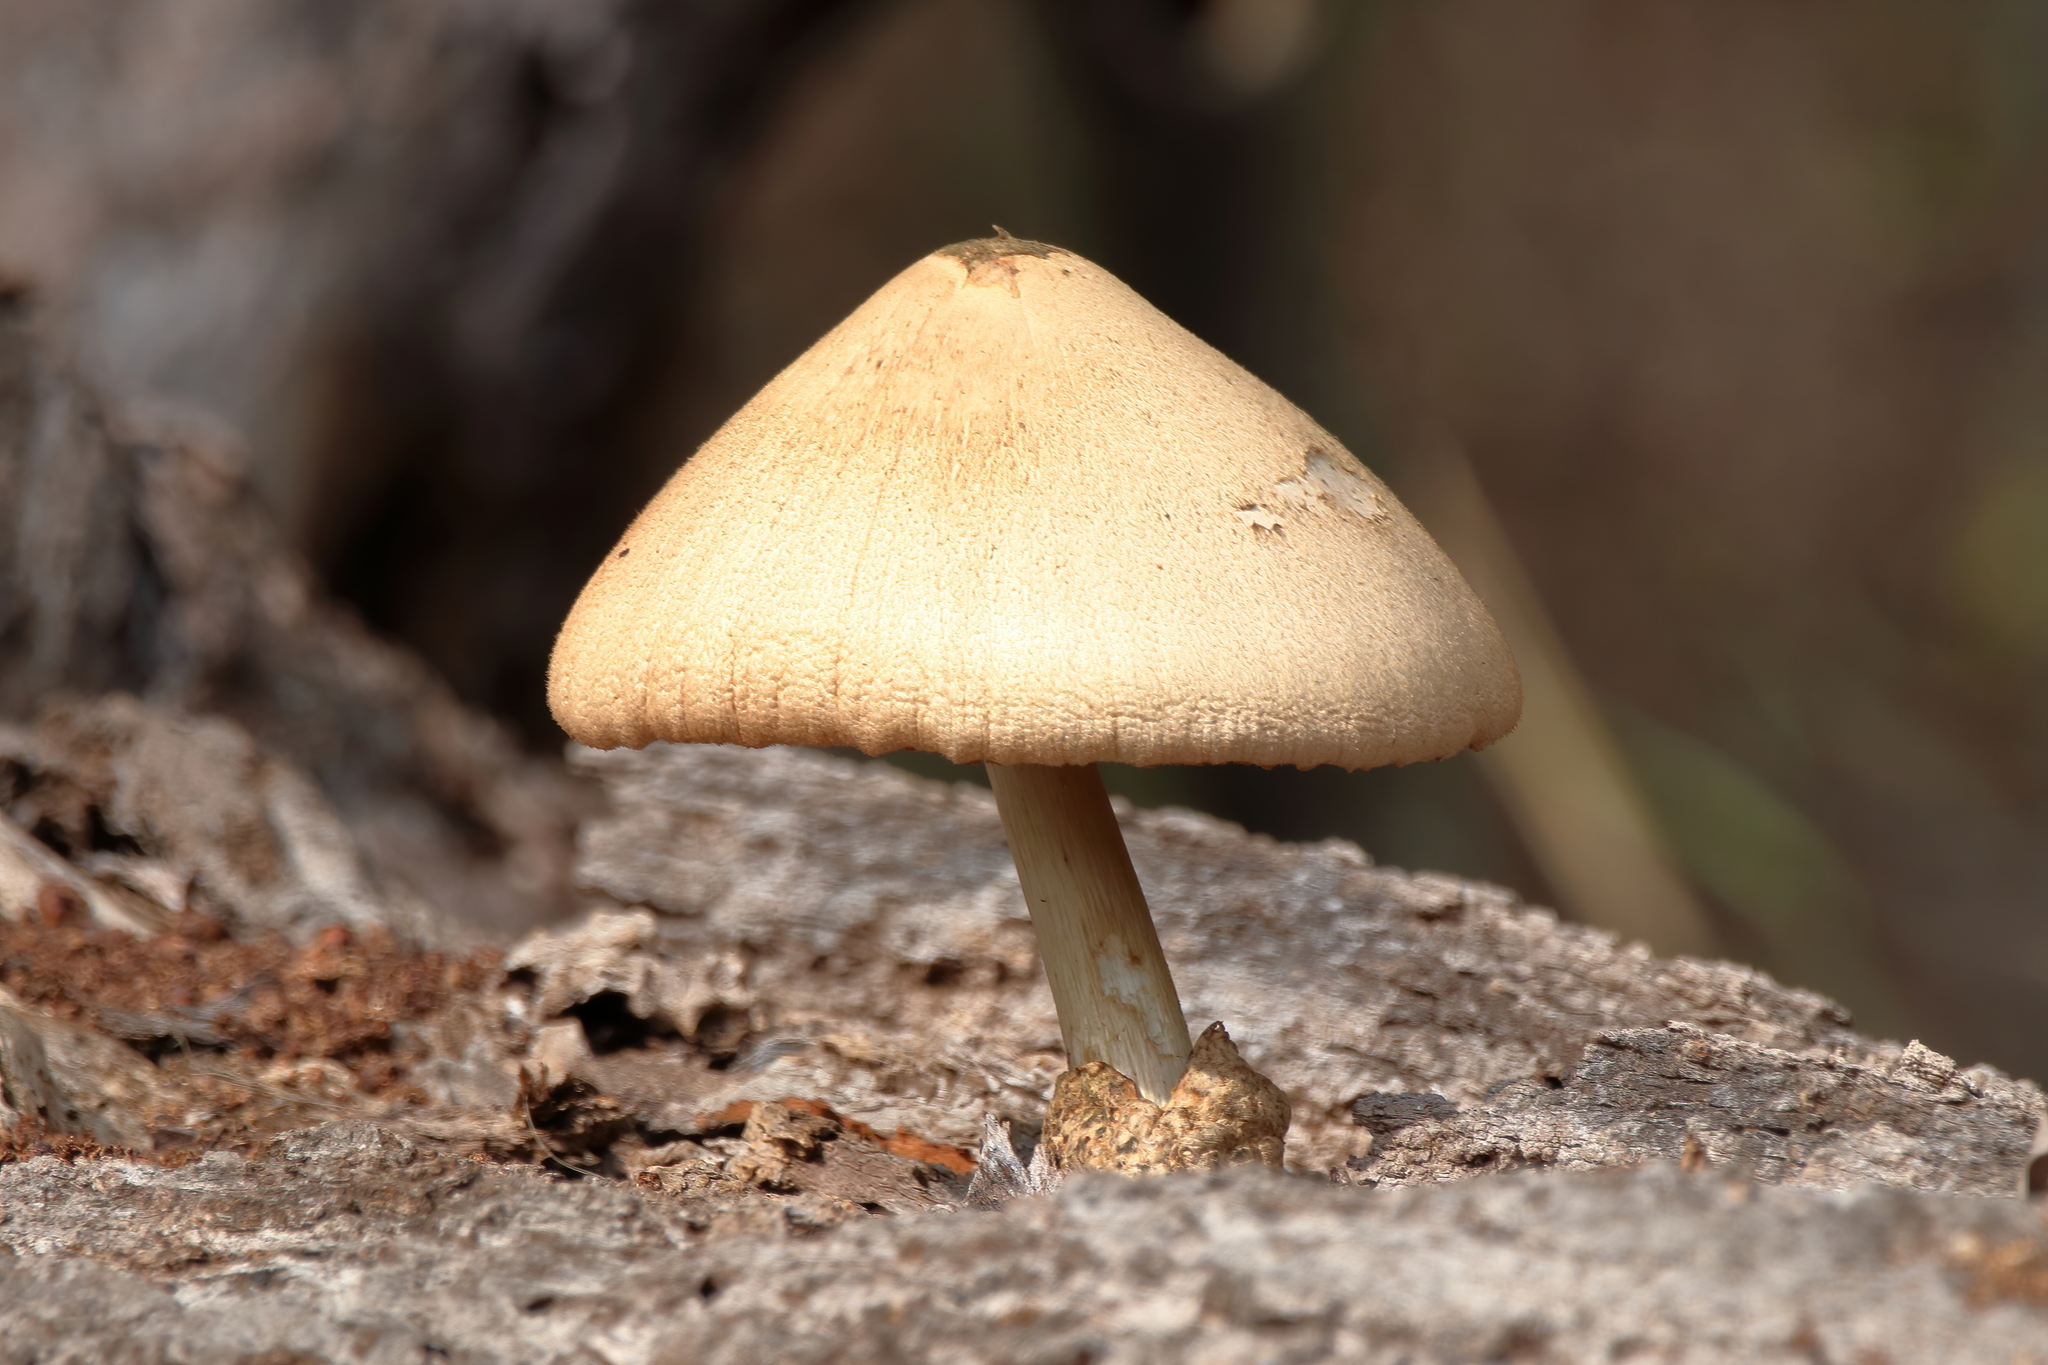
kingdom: Fungi
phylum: Basidiomycota
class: Agaricomycetes
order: Agaricales
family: Pluteaceae
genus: Volvariella
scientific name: Volvariella bombycina
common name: Silky rosegill
